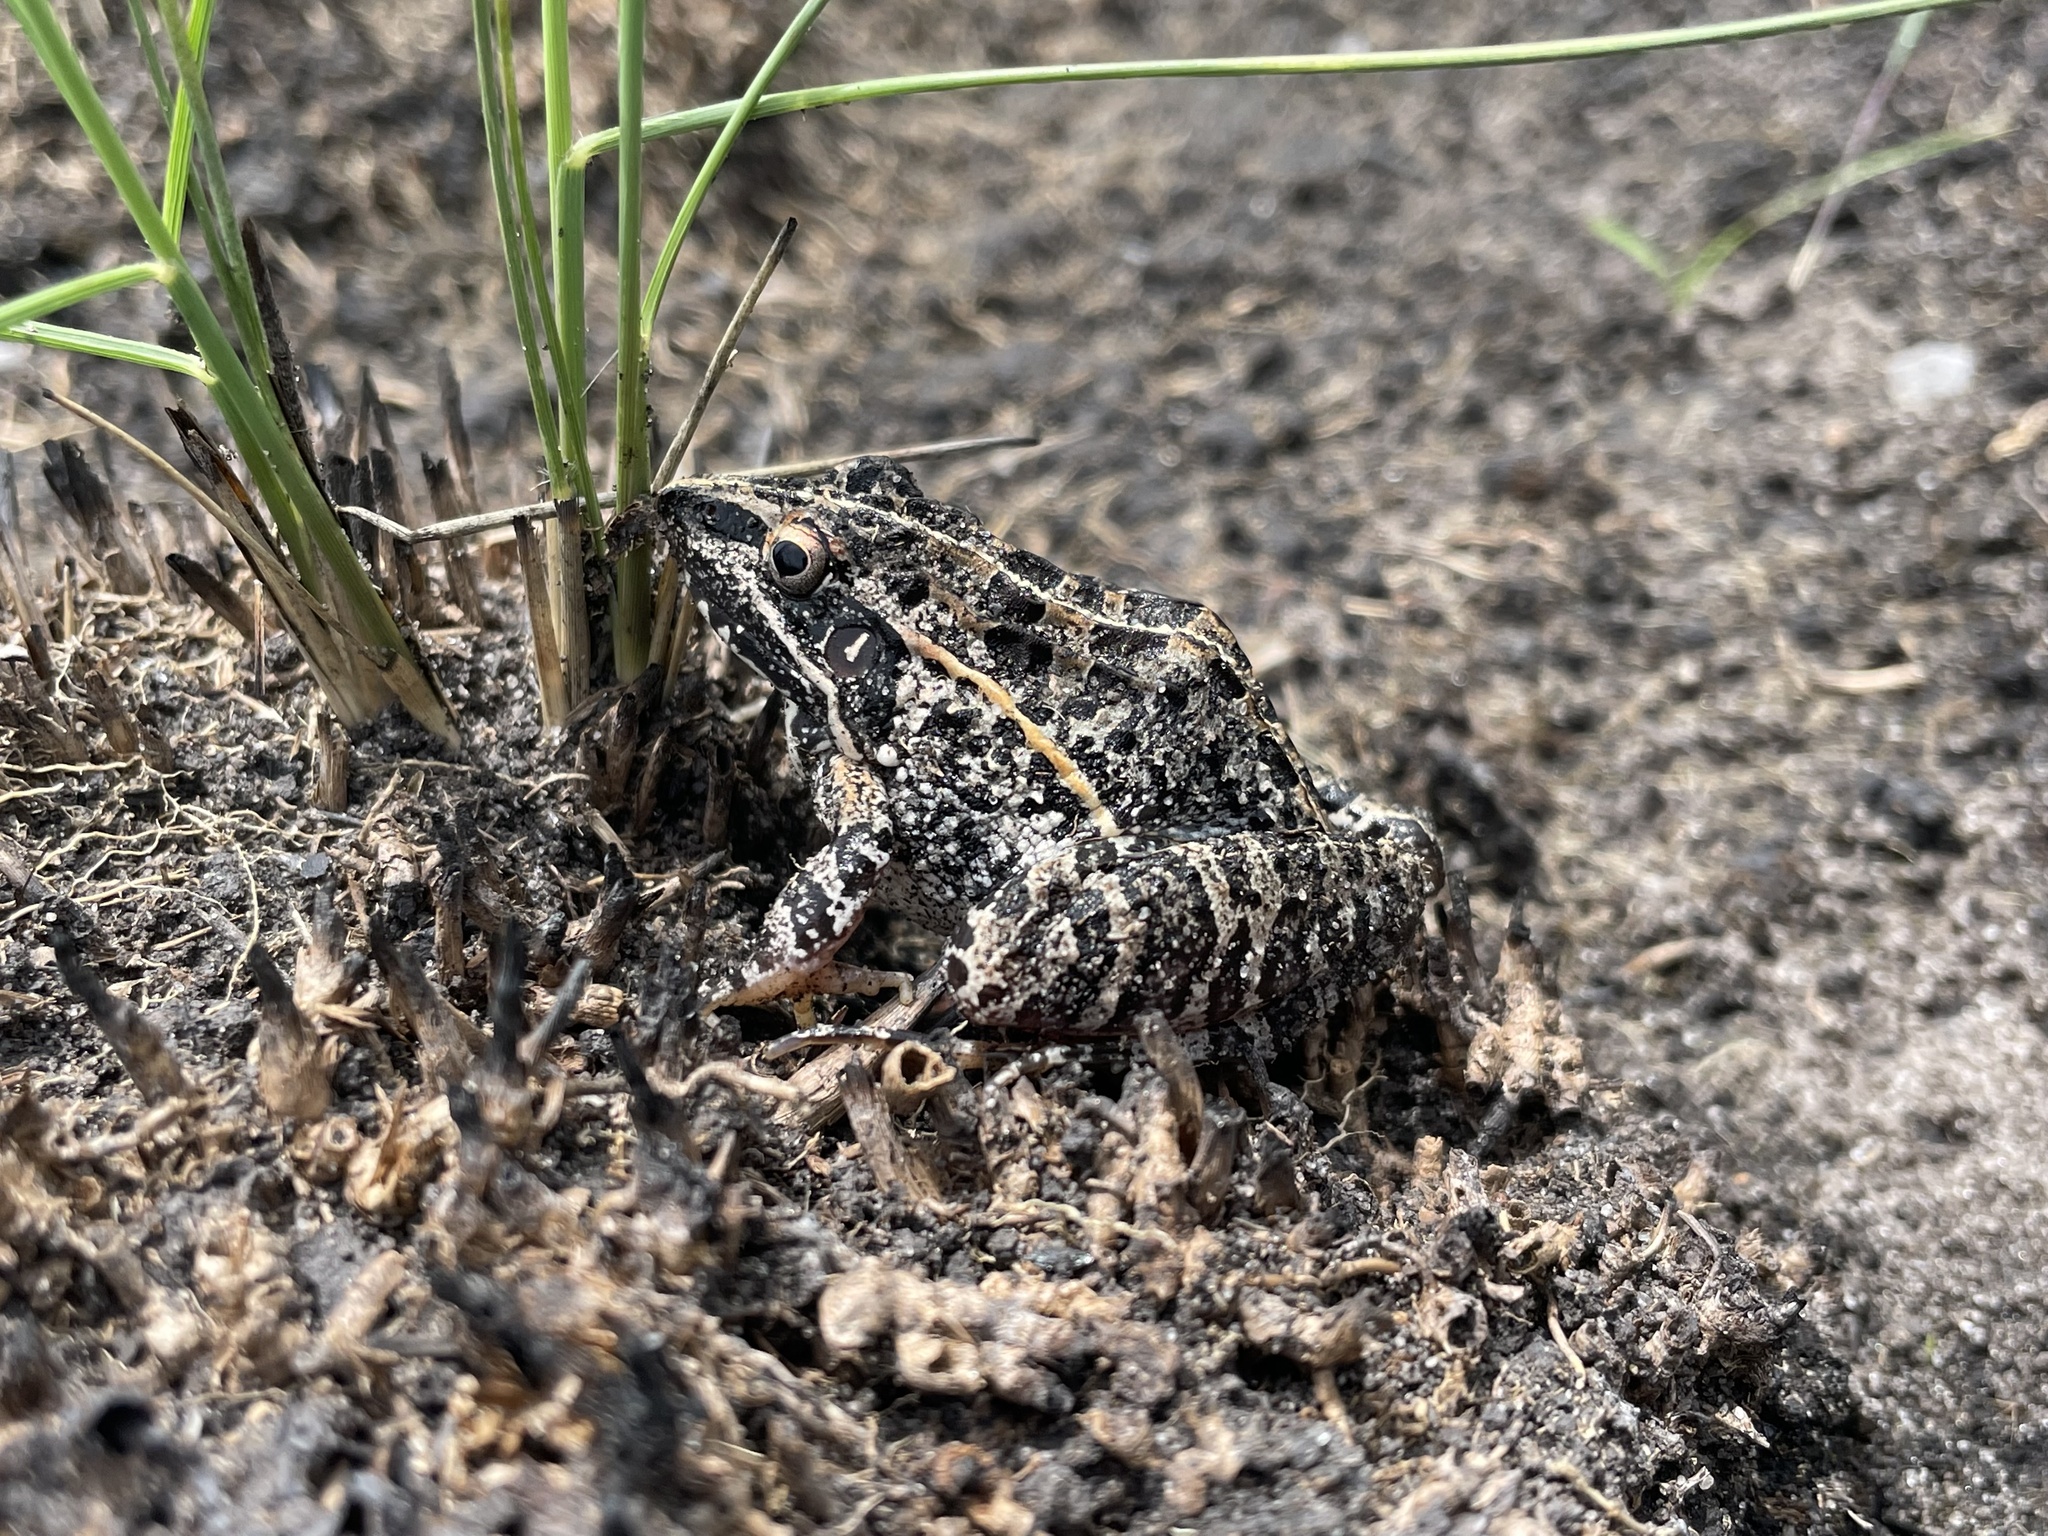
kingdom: Animalia
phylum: Chordata
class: Amphibia
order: Anura
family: Ptychadenidae
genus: Ptychadena
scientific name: Ptychadena uzungwensis
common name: Udzungwa ridged frog
